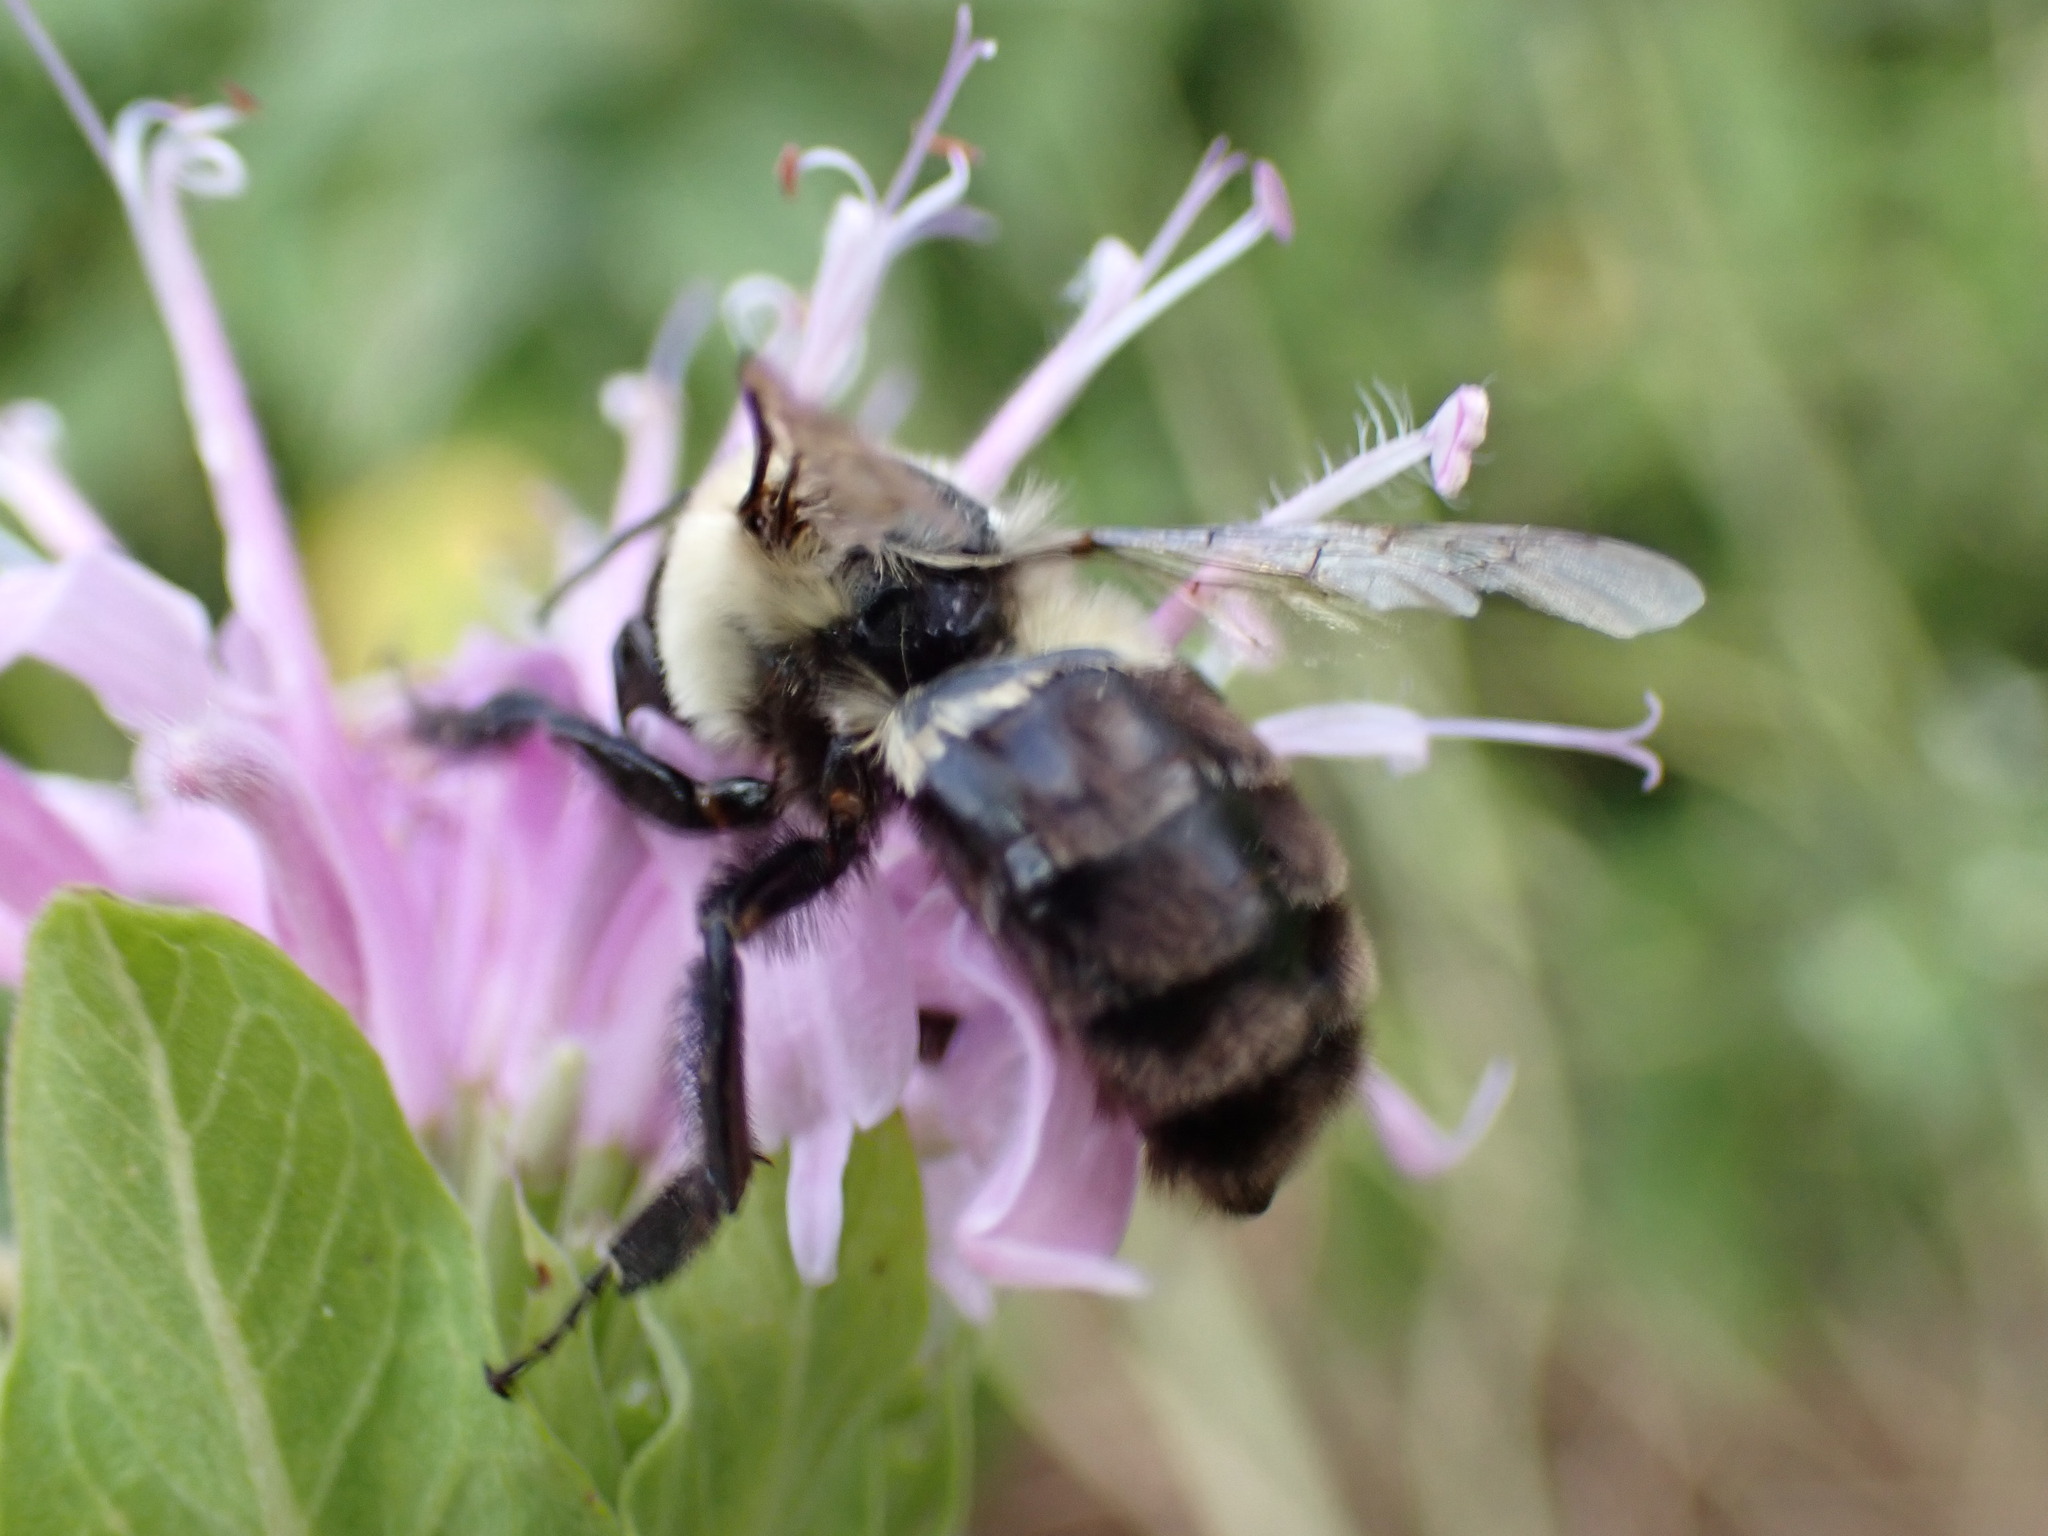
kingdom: Animalia
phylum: Arthropoda
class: Insecta
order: Hymenoptera
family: Apidae
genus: Bombus
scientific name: Bombus impatiens
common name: Common eastern bumble bee
